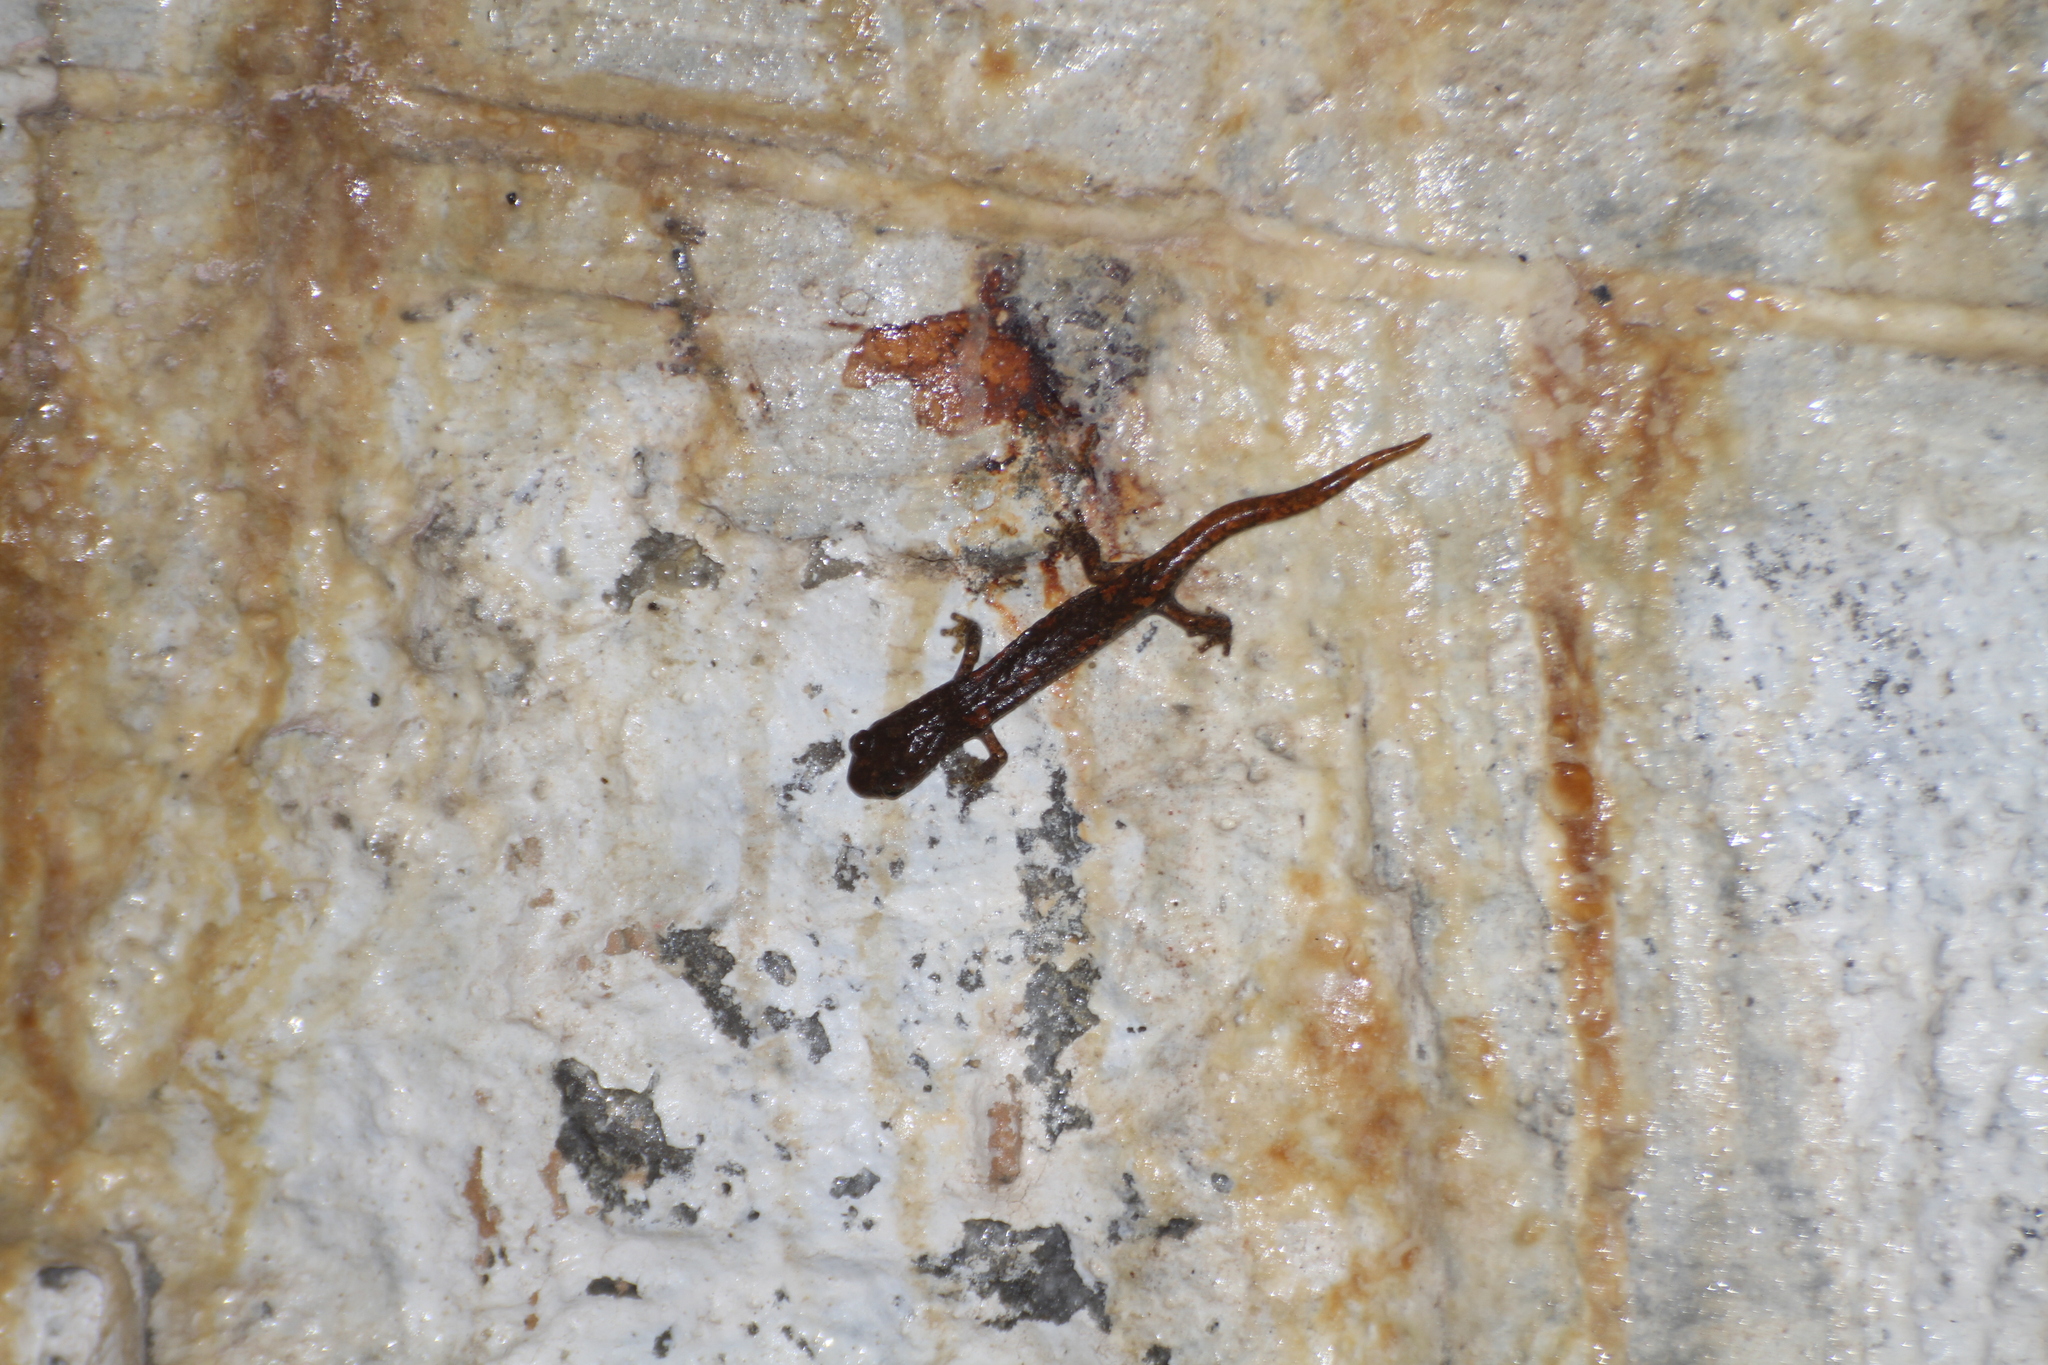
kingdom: Animalia
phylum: Chordata
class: Amphibia
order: Caudata
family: Plethodontidae
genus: Speleomantes
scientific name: Speleomantes strinatii
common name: French cave salamander
